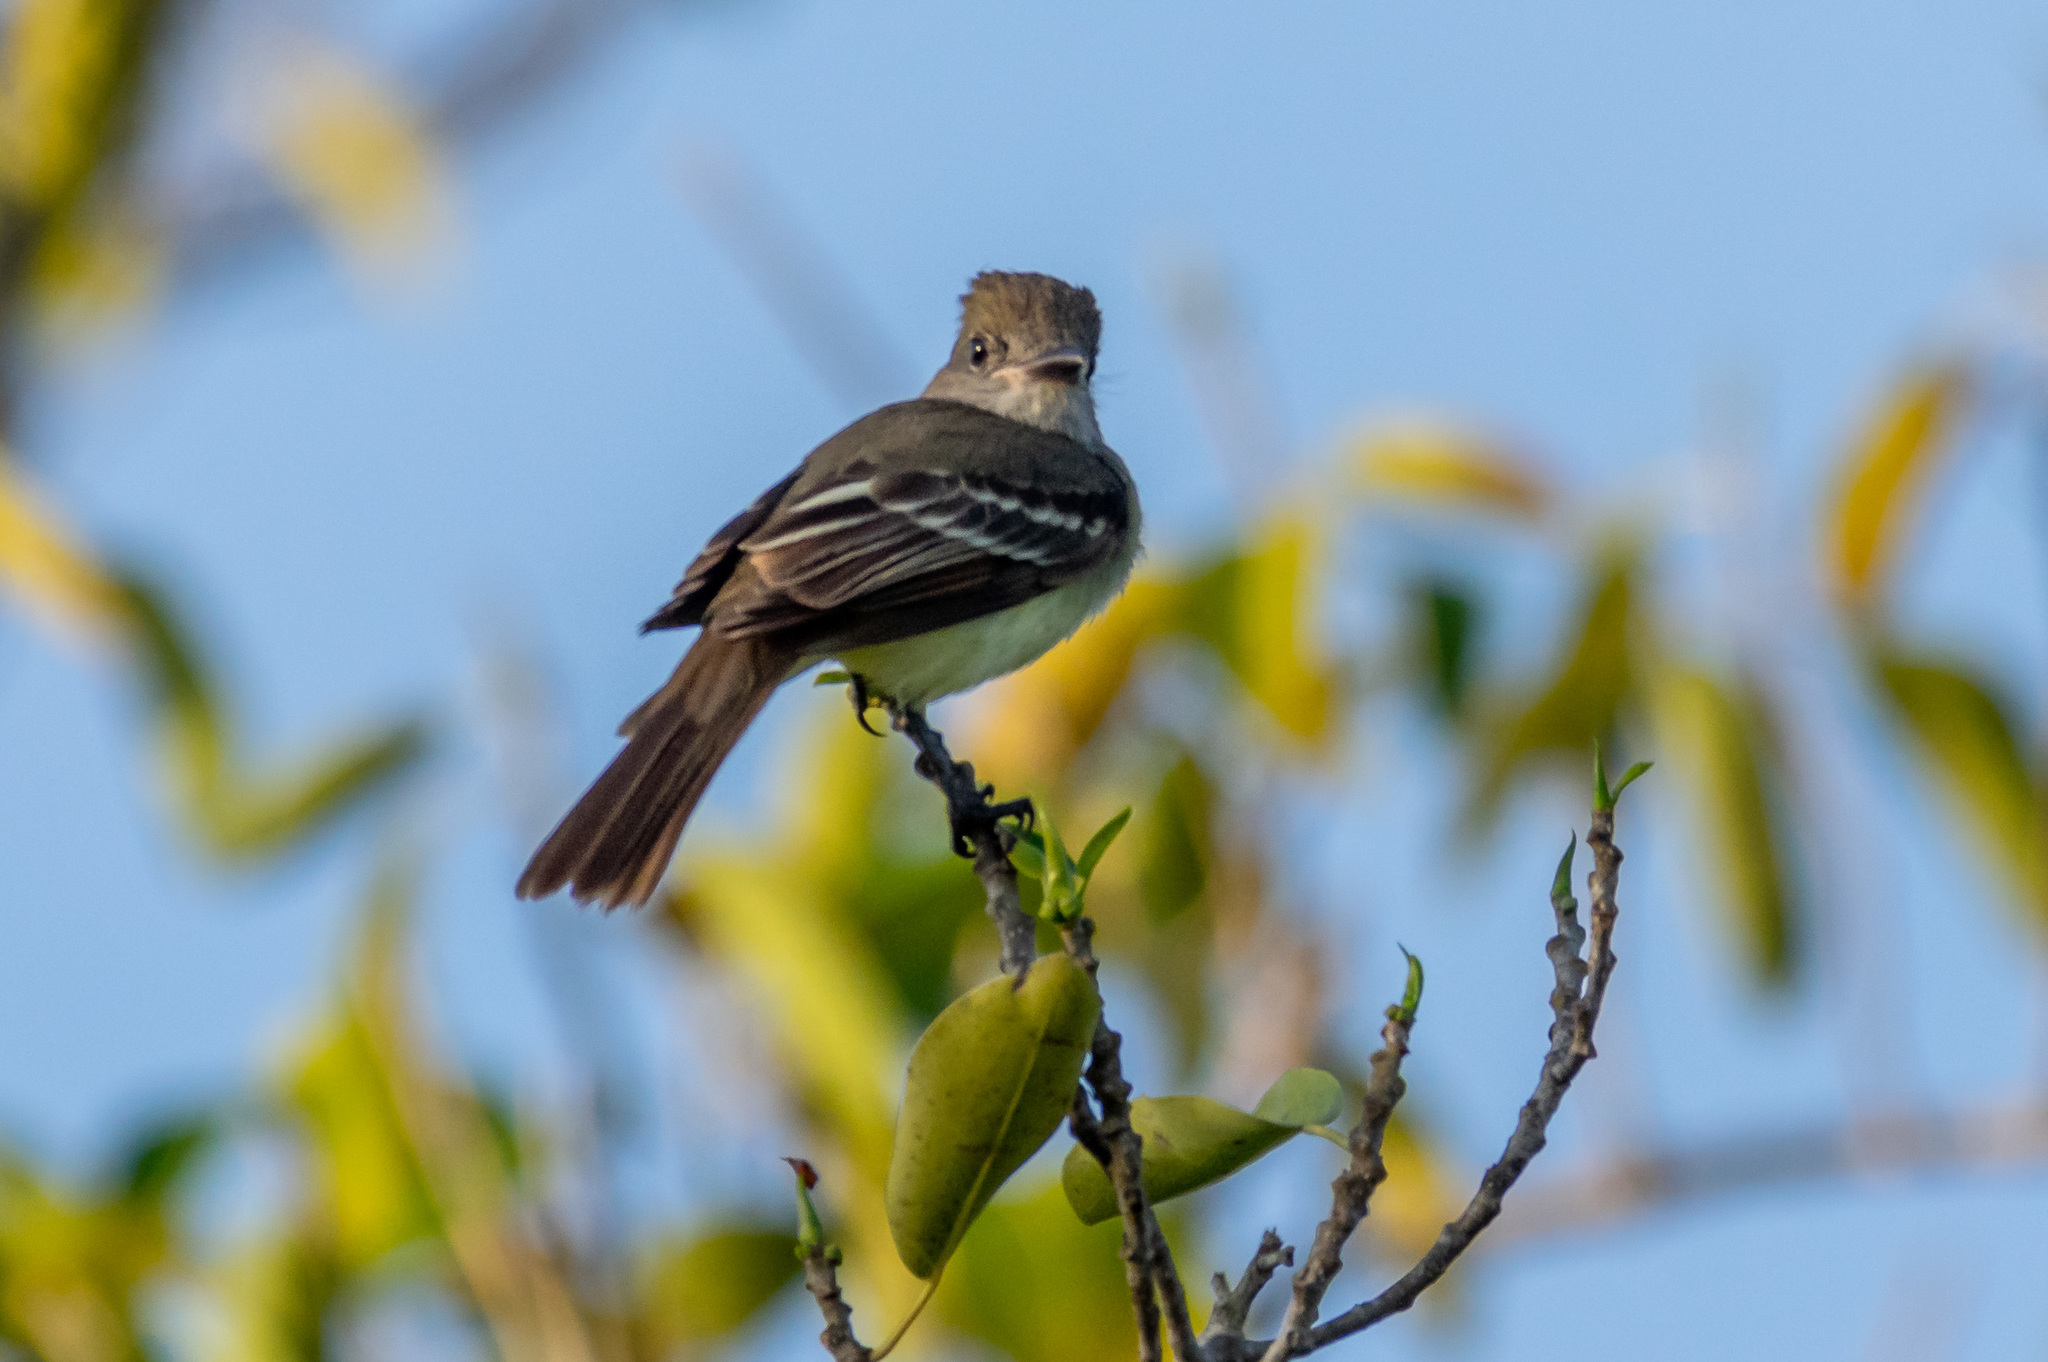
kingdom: Animalia
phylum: Chordata
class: Aves
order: Passeriformes
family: Tyrannidae
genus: Myiarchus
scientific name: Myiarchus crinitus
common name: Great crested flycatcher
